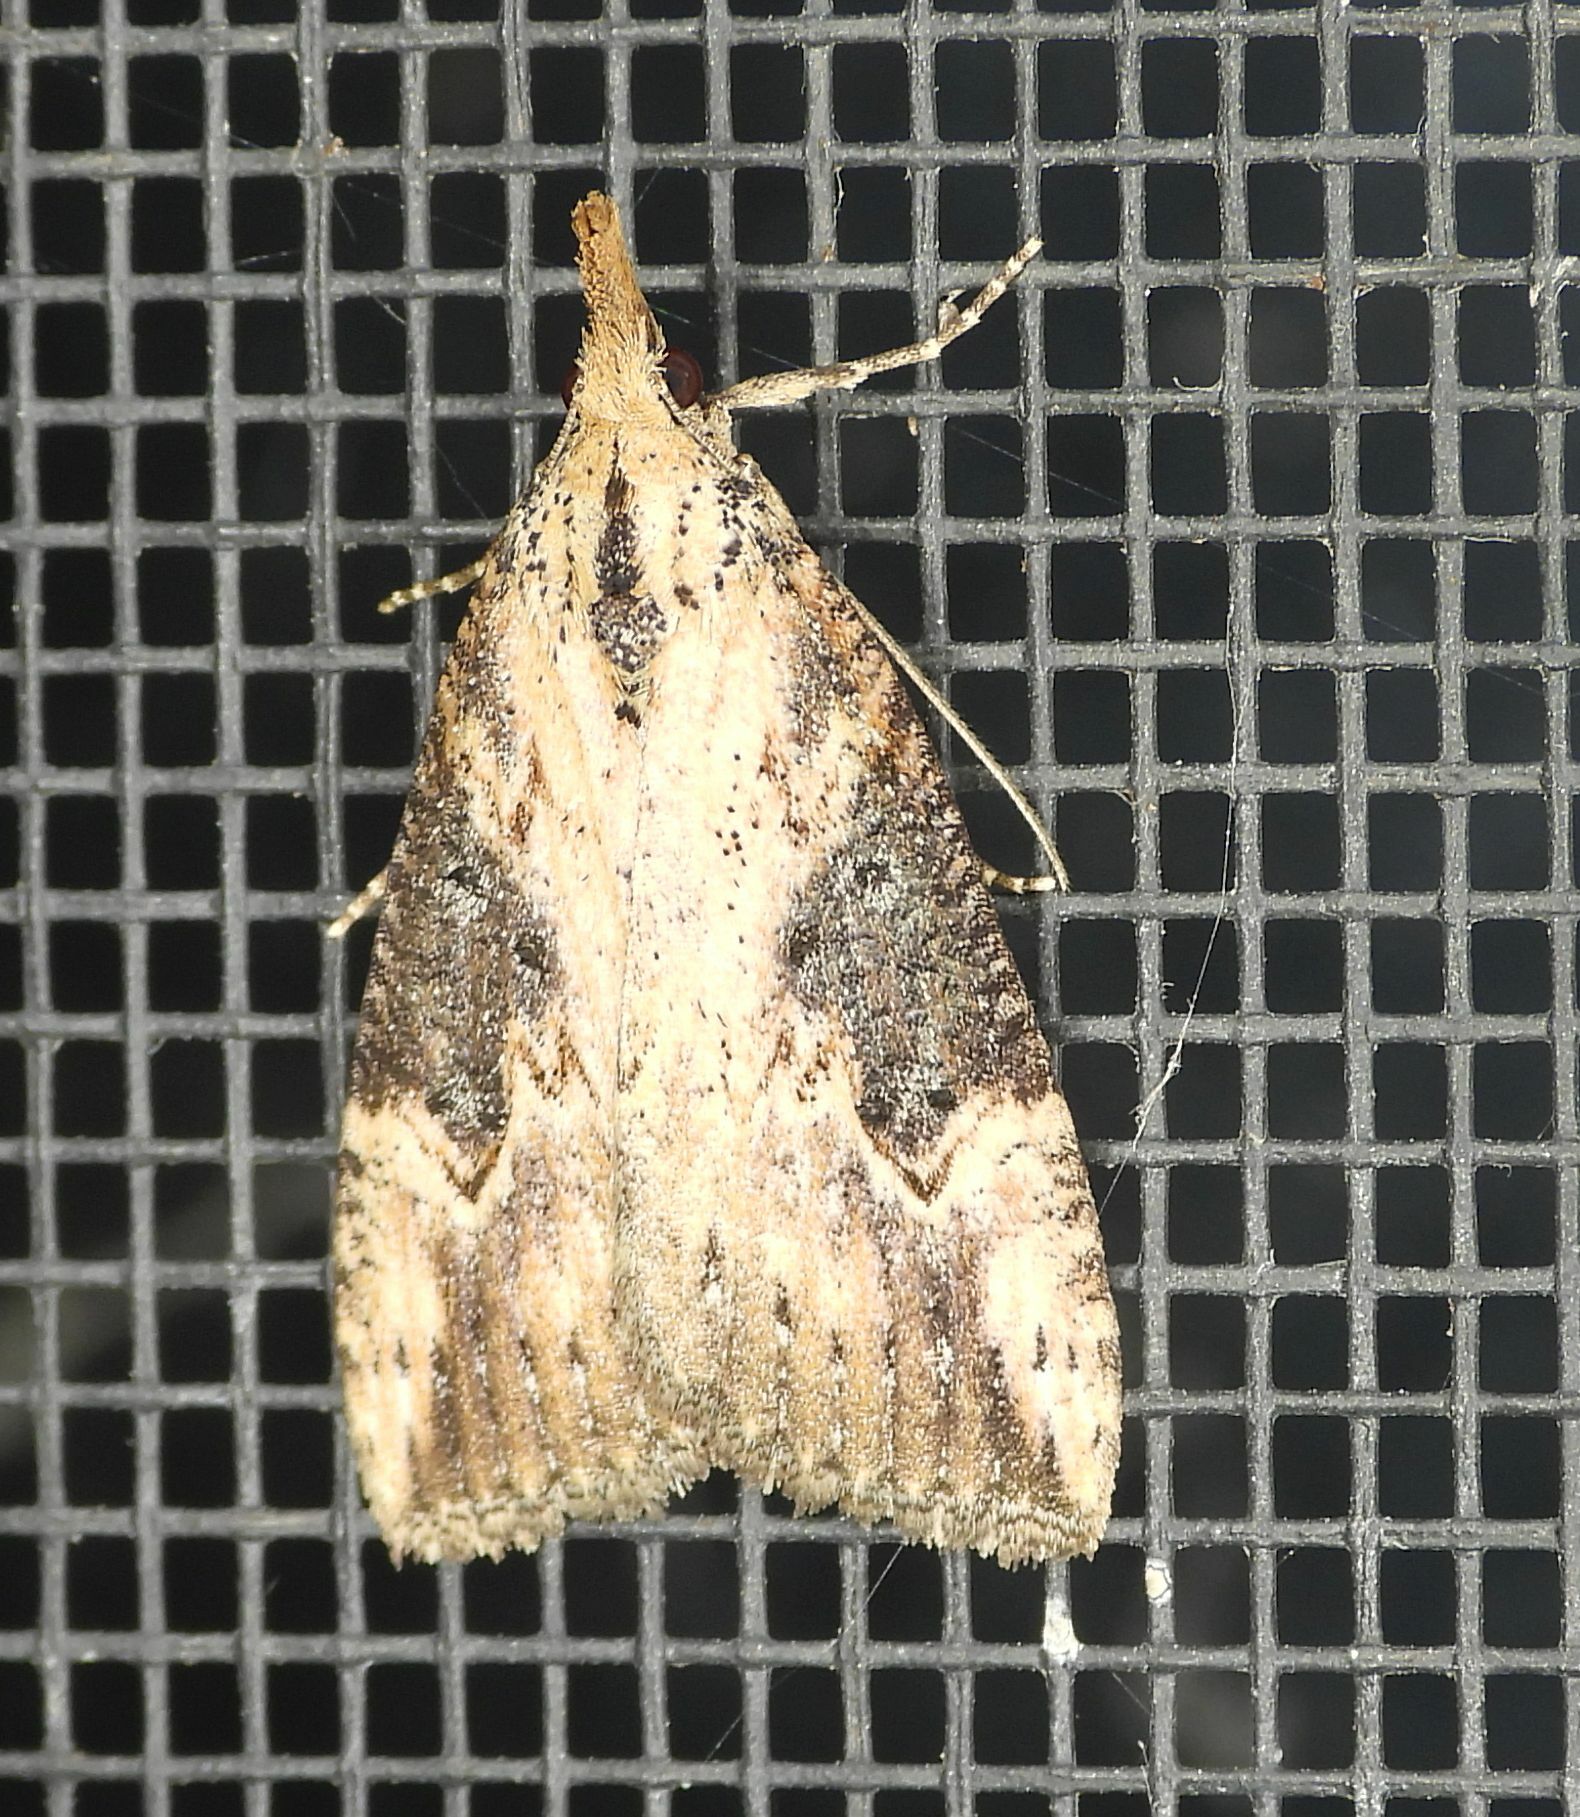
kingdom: Animalia
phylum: Arthropoda
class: Insecta
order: Lepidoptera
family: Erebidae
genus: Hypena
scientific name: Hypena humuli
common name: Hop vine snout
